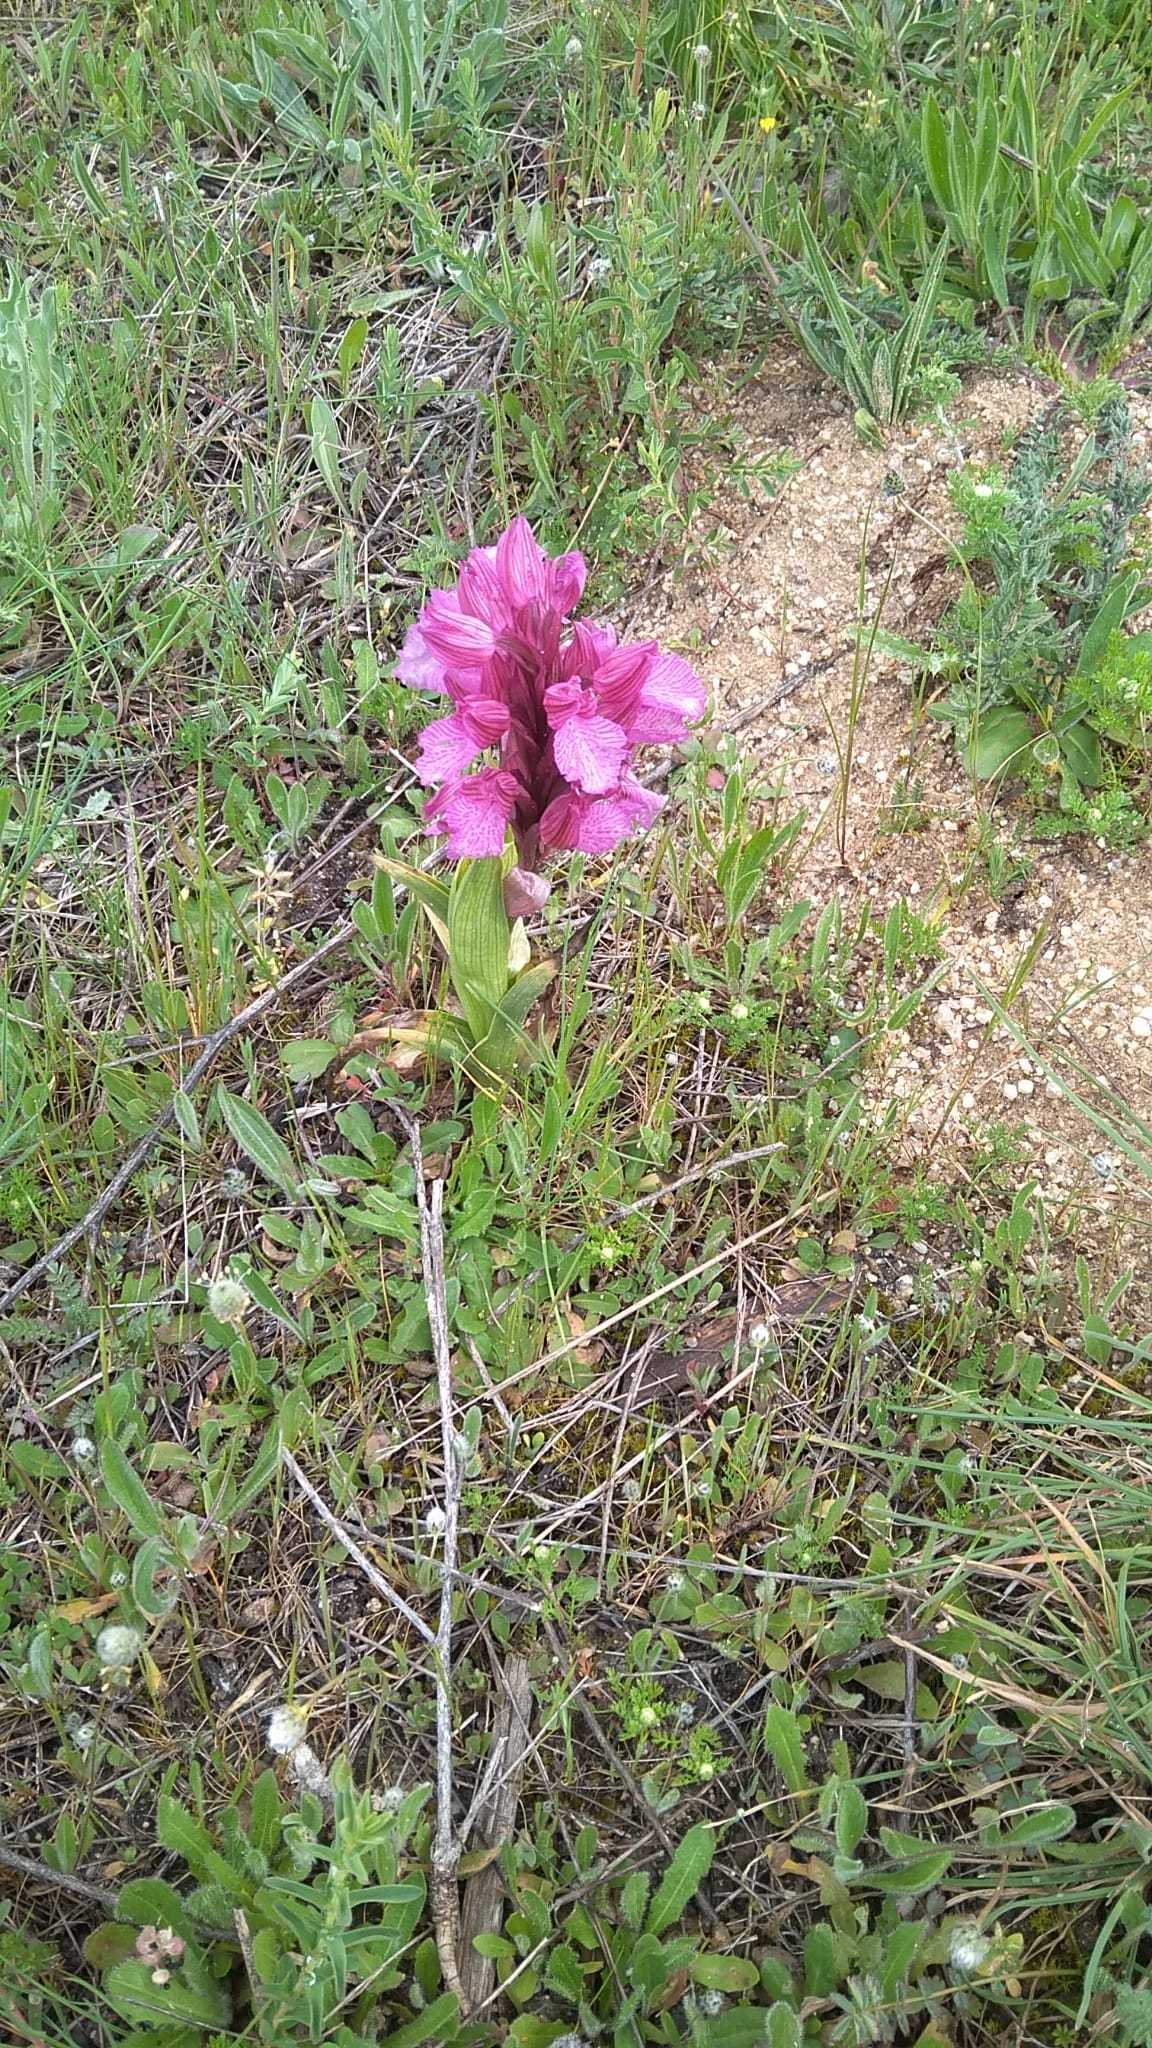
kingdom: Plantae
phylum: Tracheophyta
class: Liliopsida
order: Asparagales
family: Orchidaceae
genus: Anacamptis
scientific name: Anacamptis papilionacea
